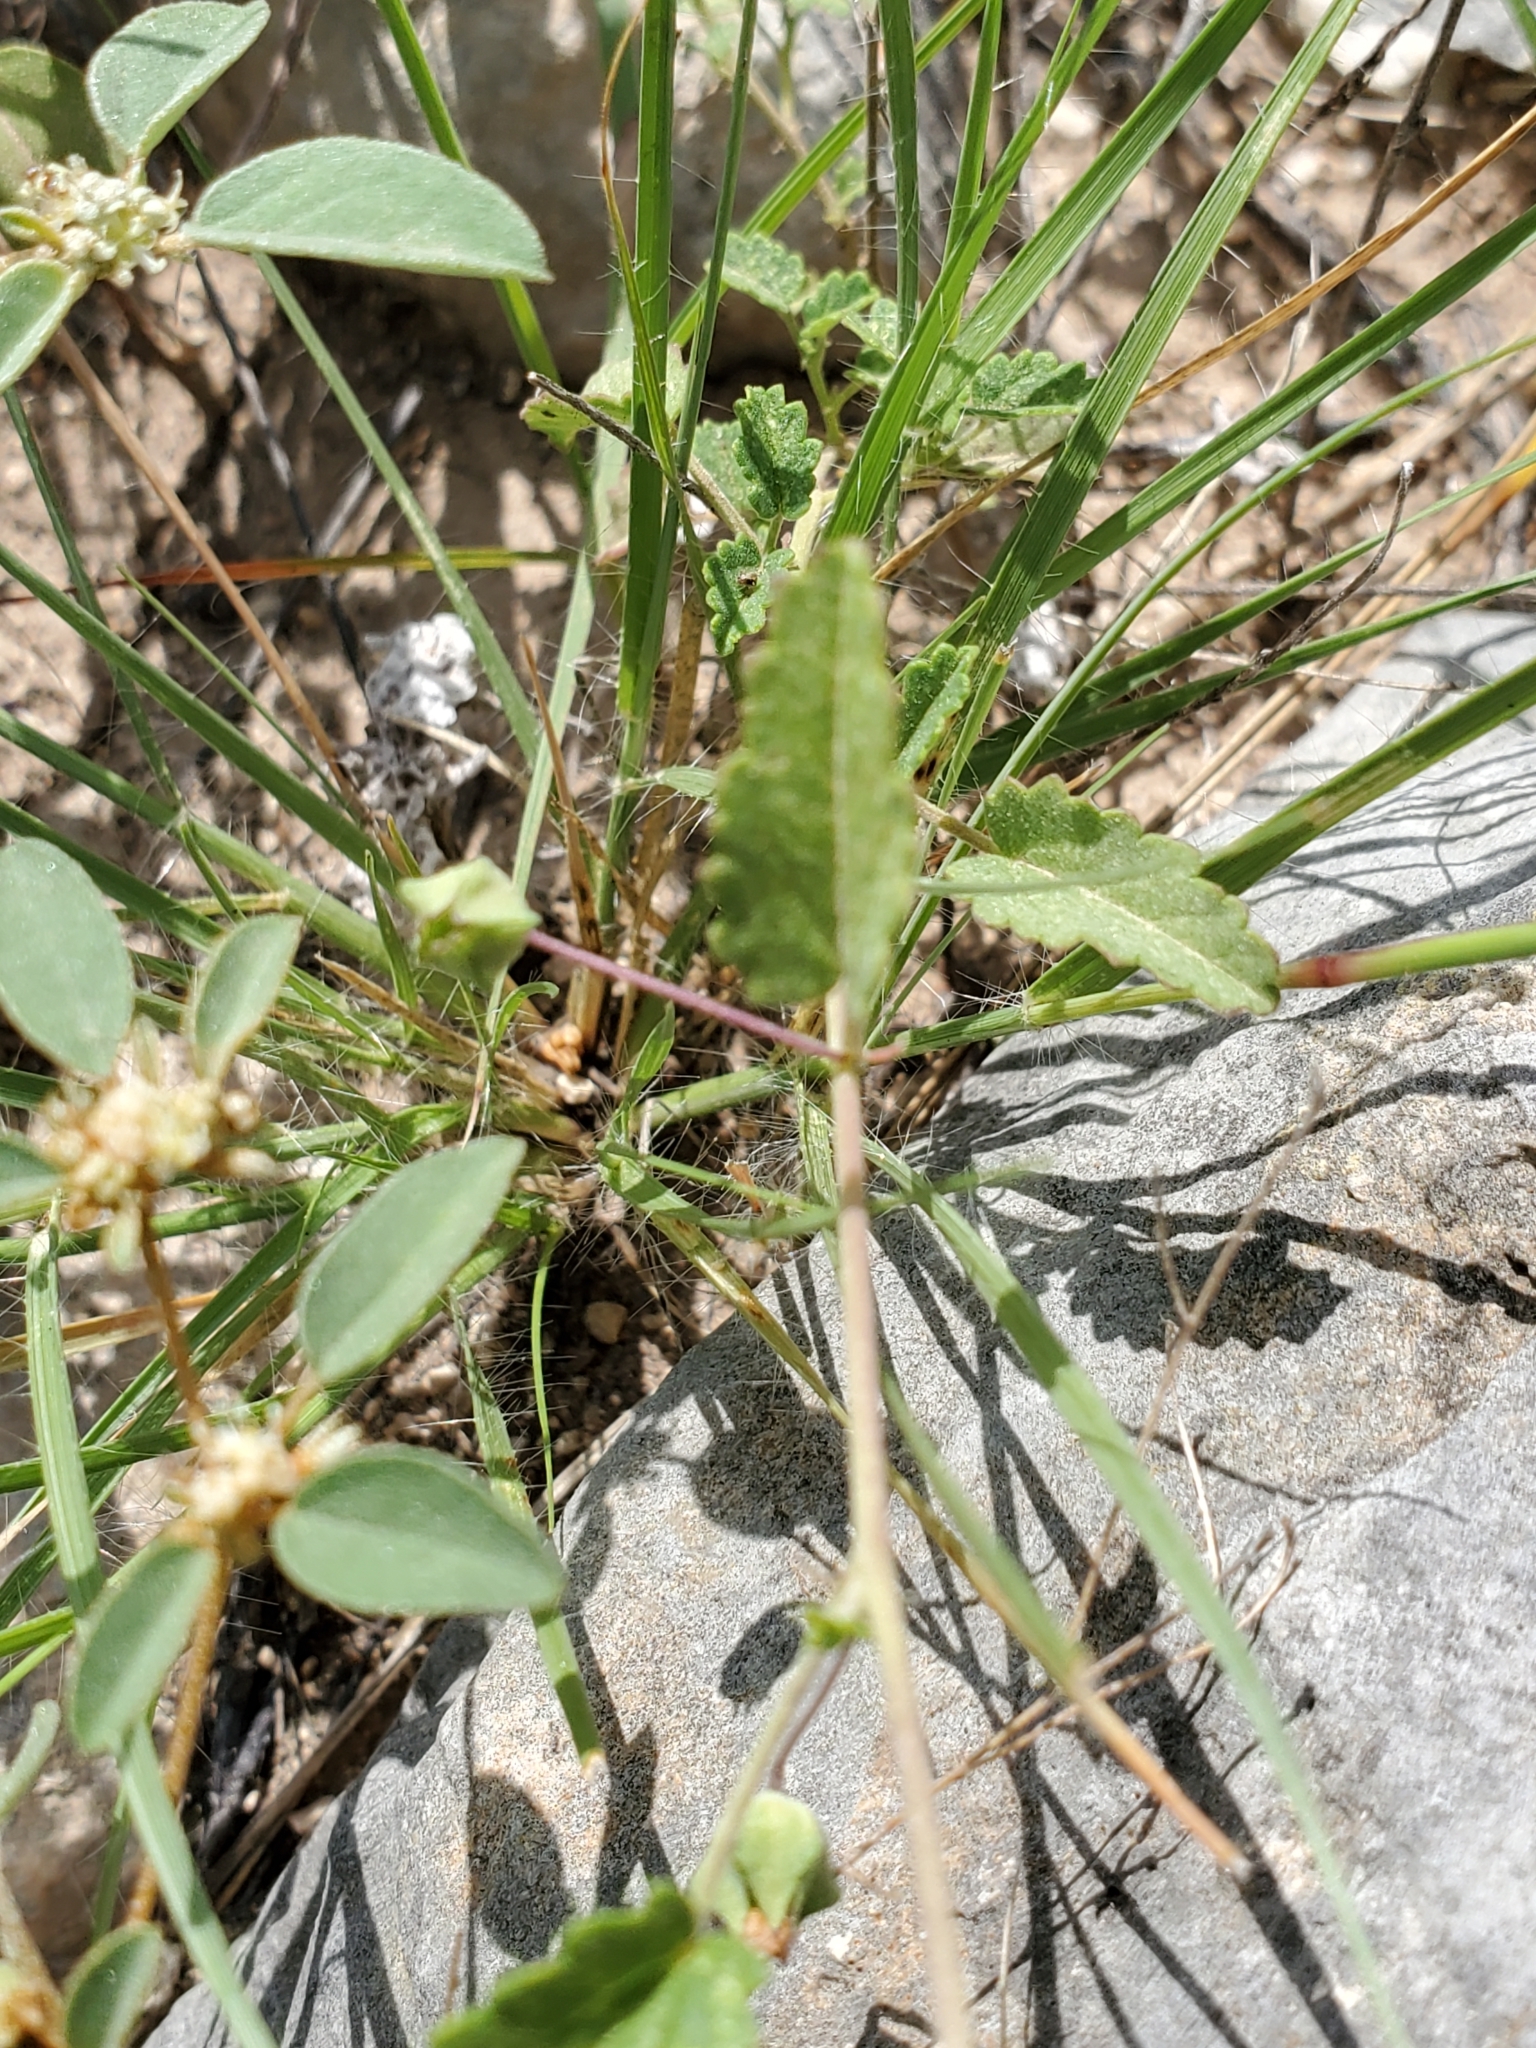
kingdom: Plantae
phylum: Tracheophyta
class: Magnoliopsida
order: Malvales
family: Malvaceae
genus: Sida
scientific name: Sida abutilifolia
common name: Spreading fanpetals
